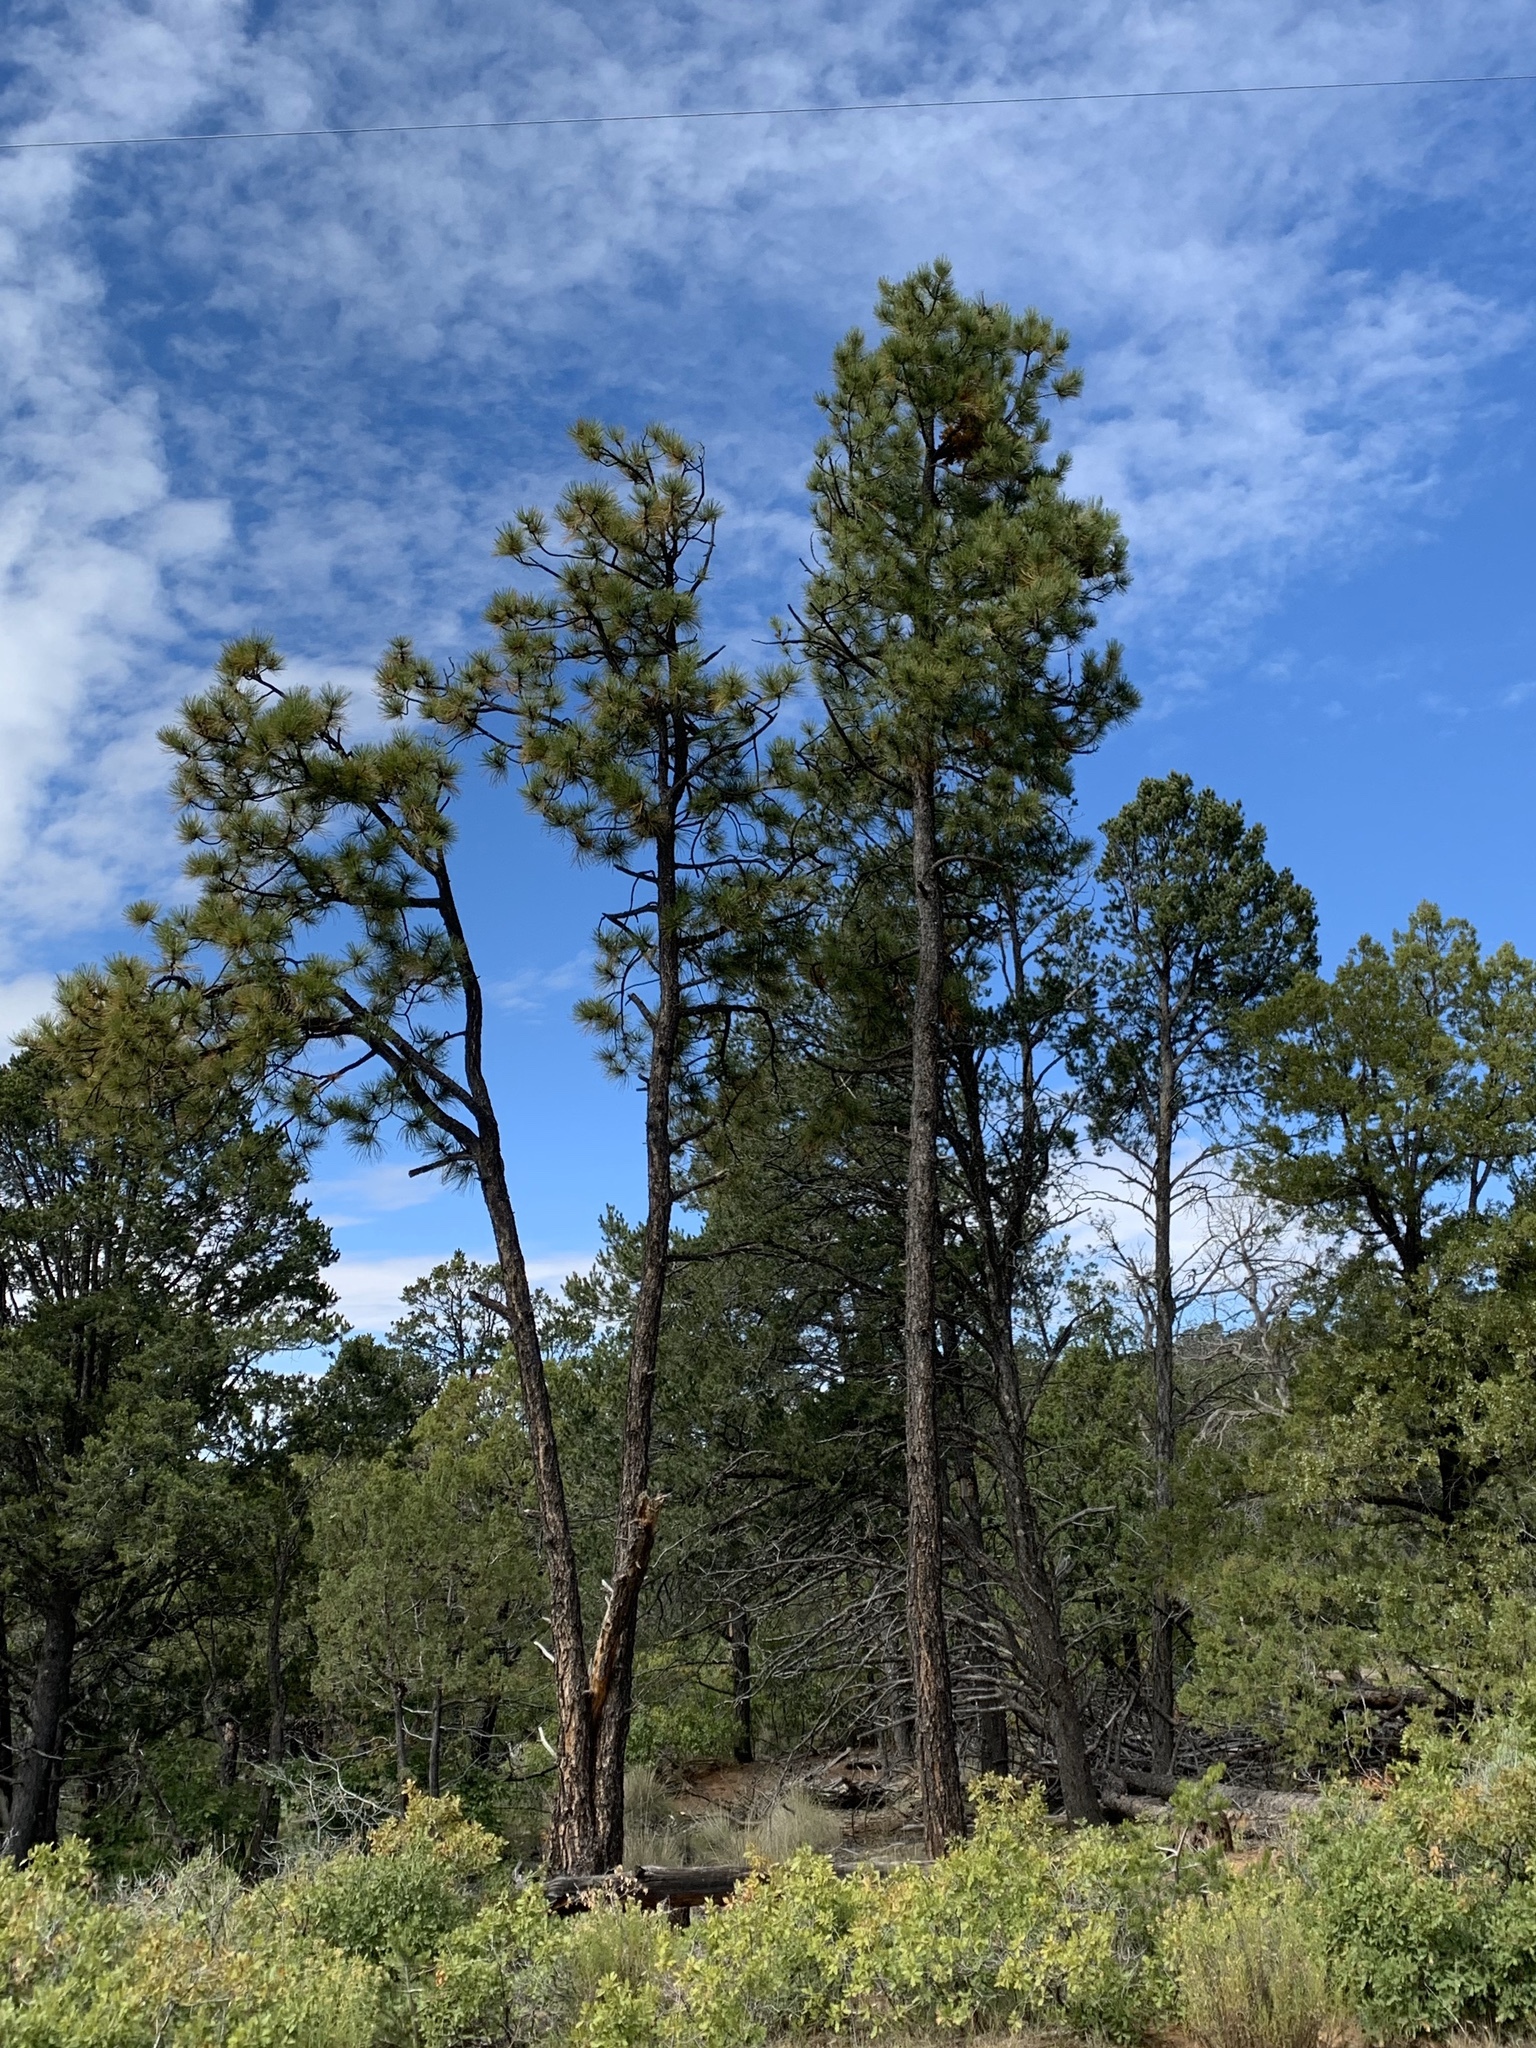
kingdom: Plantae
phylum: Tracheophyta
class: Pinopsida
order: Pinales
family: Pinaceae
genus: Pinus
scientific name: Pinus ponderosa
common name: Western yellow-pine
